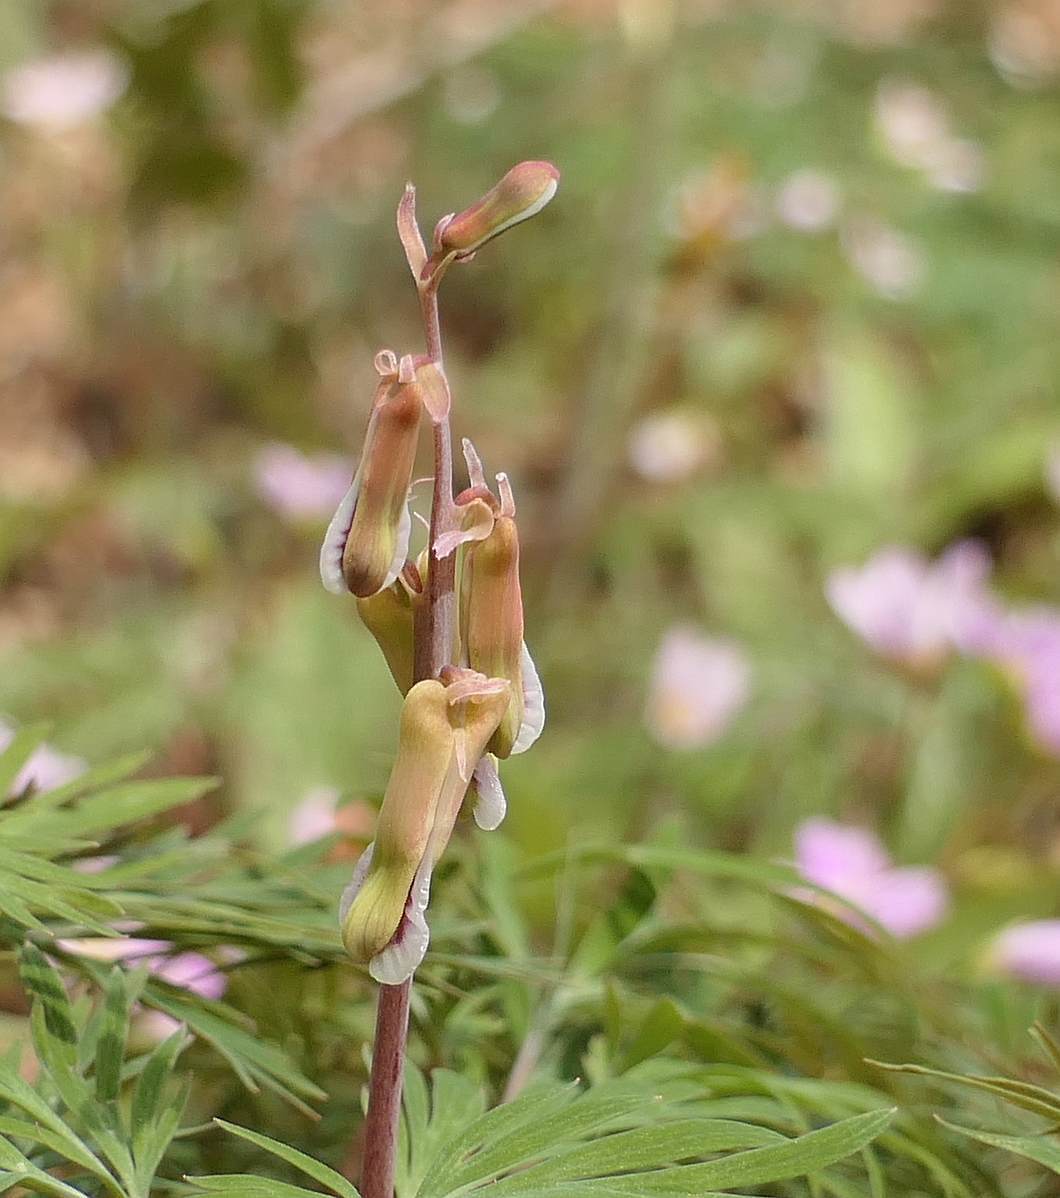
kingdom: Plantae
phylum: Tracheophyta
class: Magnoliopsida
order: Ranunculales
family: Papaveraceae
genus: Dicentra
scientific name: Dicentra canadensis
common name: Squirrel-corn
